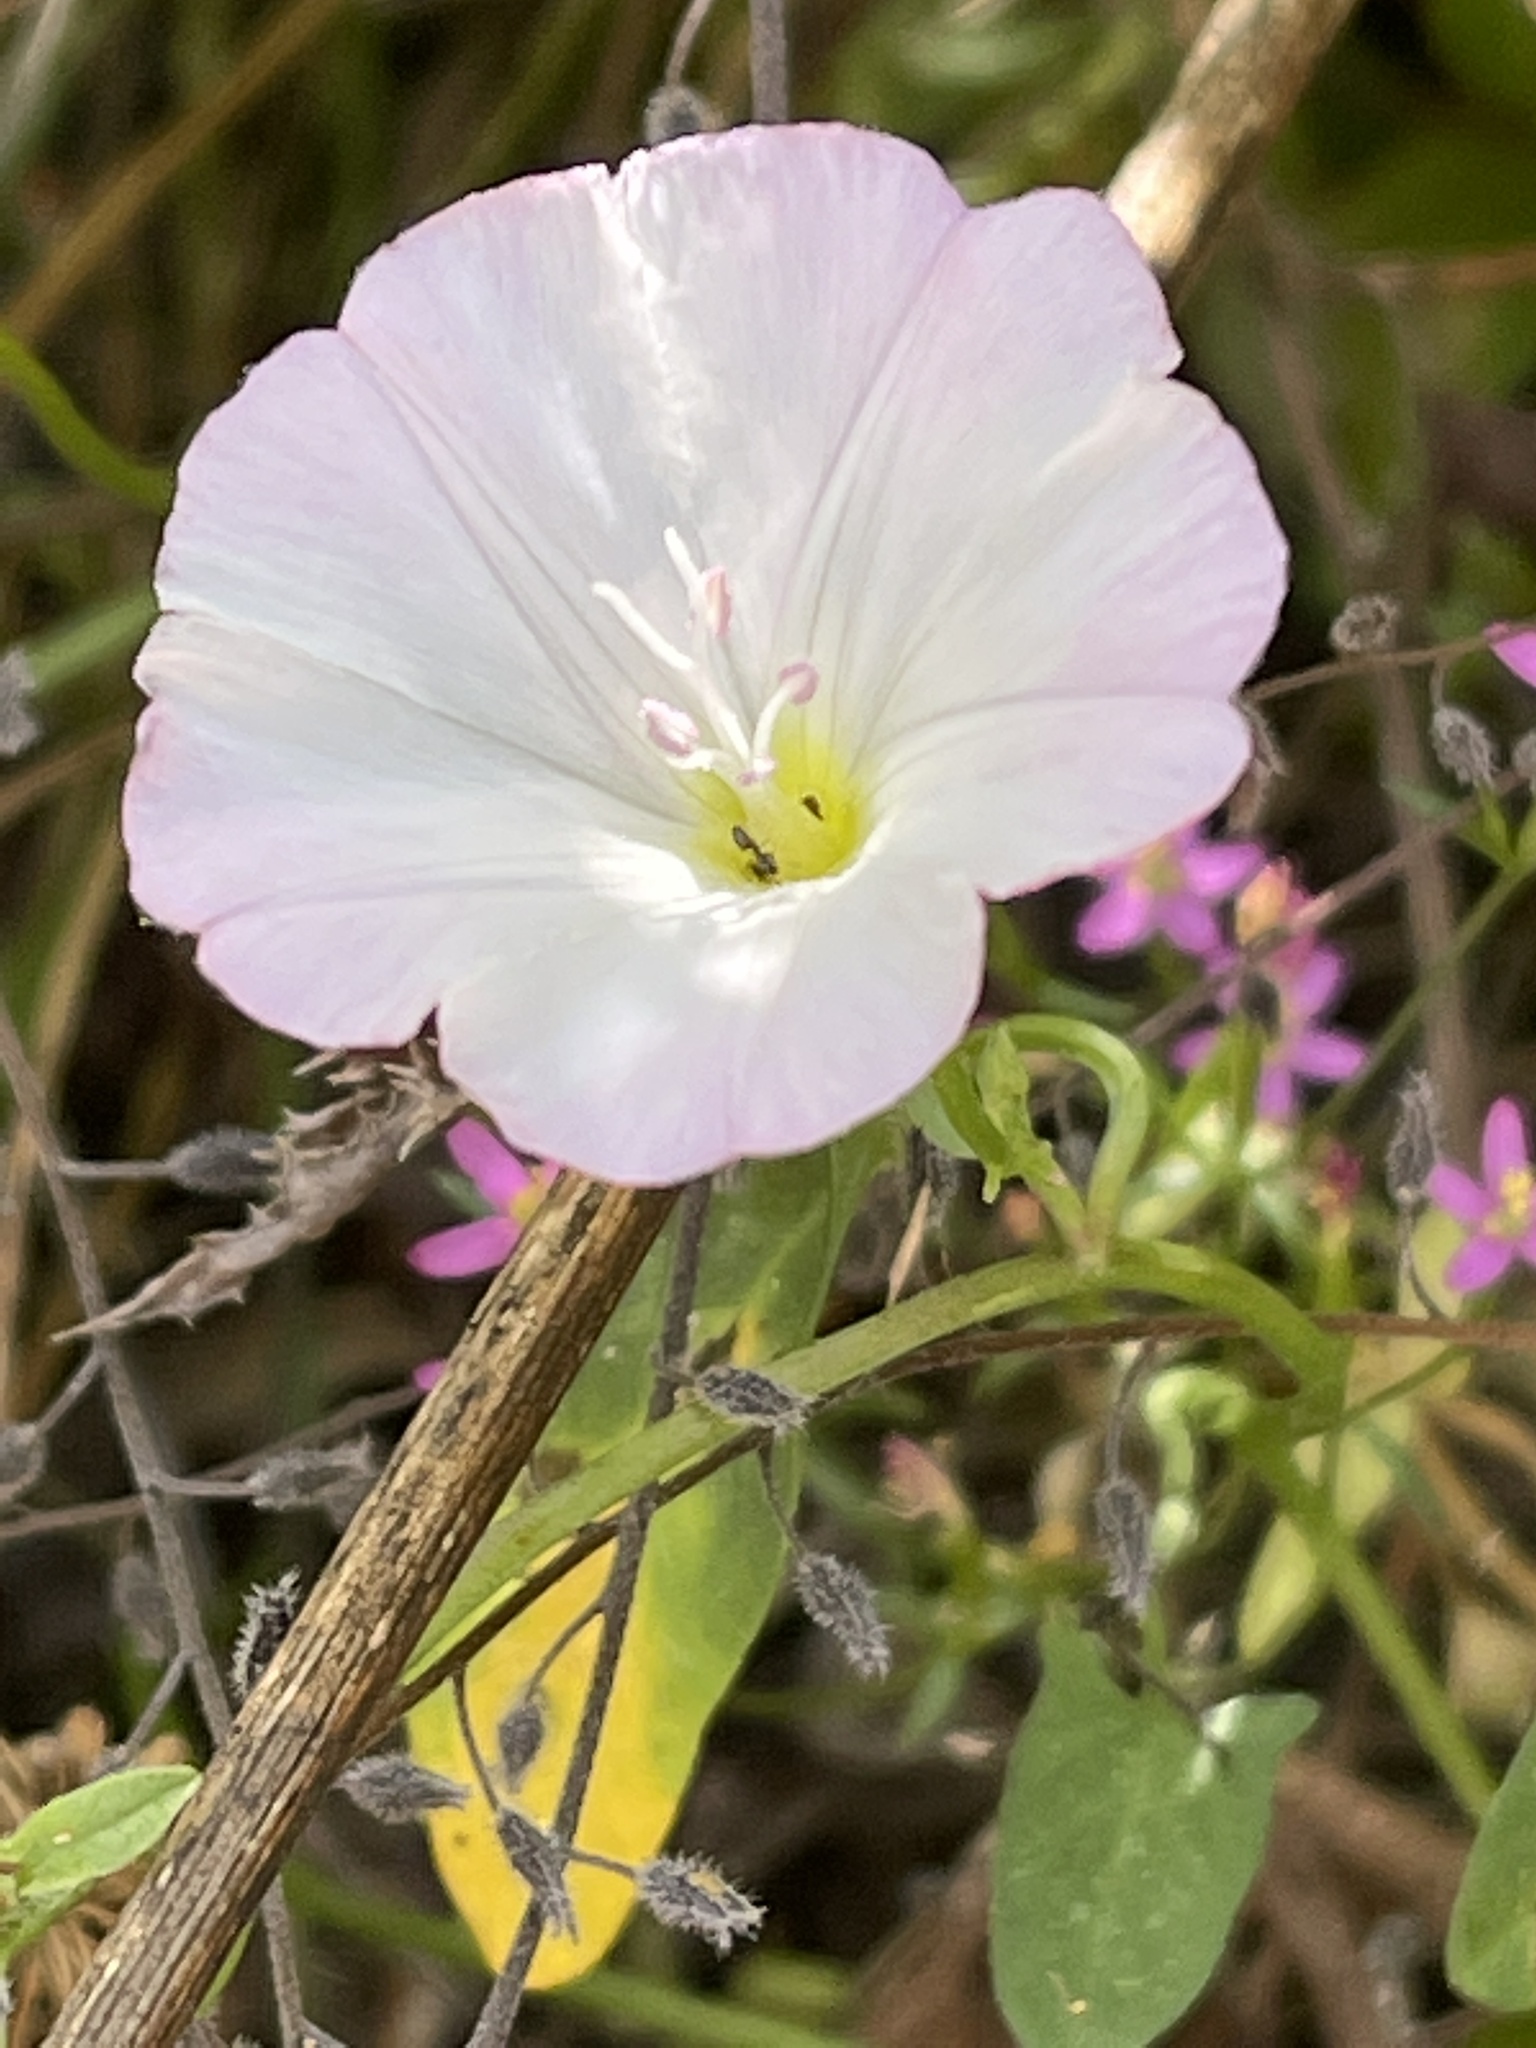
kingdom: Plantae
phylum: Tracheophyta
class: Magnoliopsida
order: Solanales
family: Convolvulaceae
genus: Convolvulus
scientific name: Convolvulus arvensis
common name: Field bindweed
